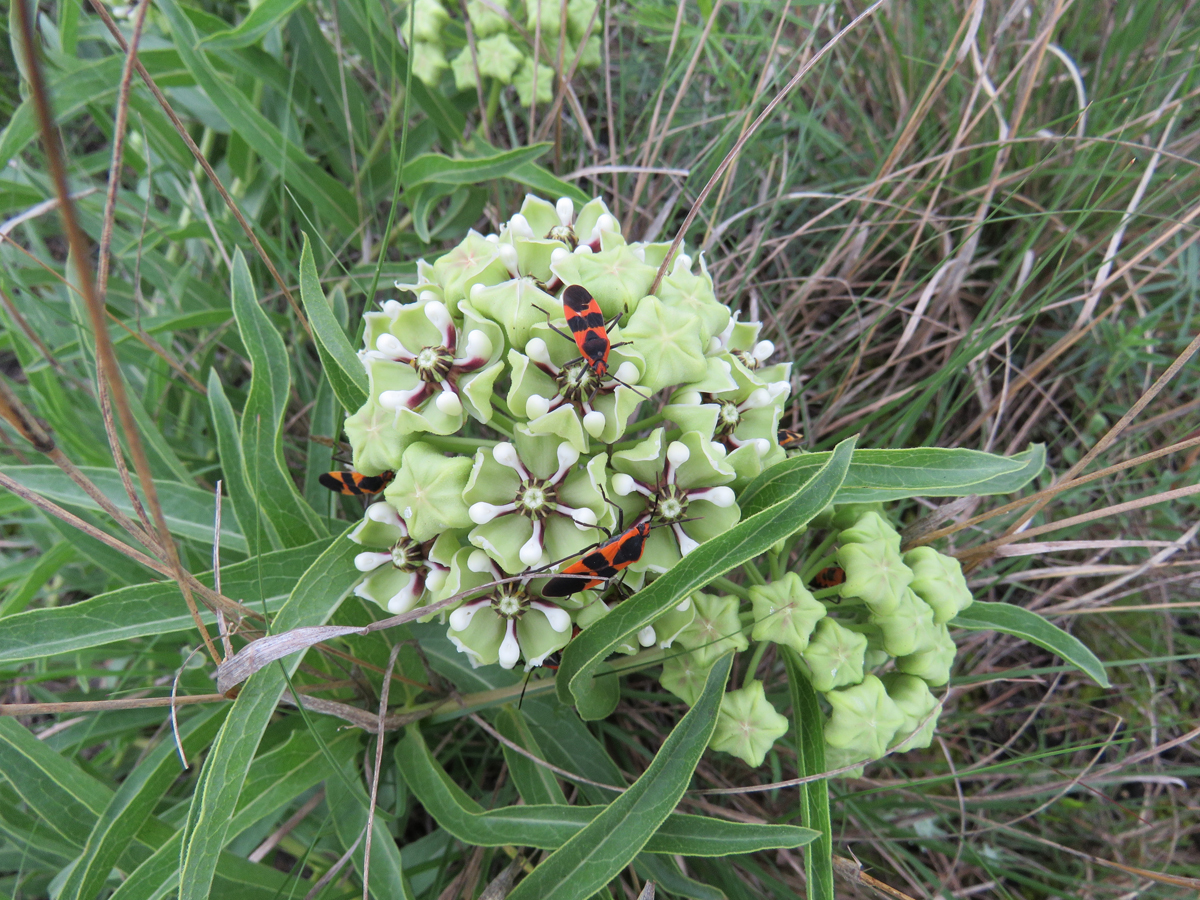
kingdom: Animalia
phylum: Arthropoda
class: Insecta
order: Hemiptera
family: Lygaeidae
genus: Oncopeltus
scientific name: Oncopeltus fasciatus
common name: Large milkweed bug
